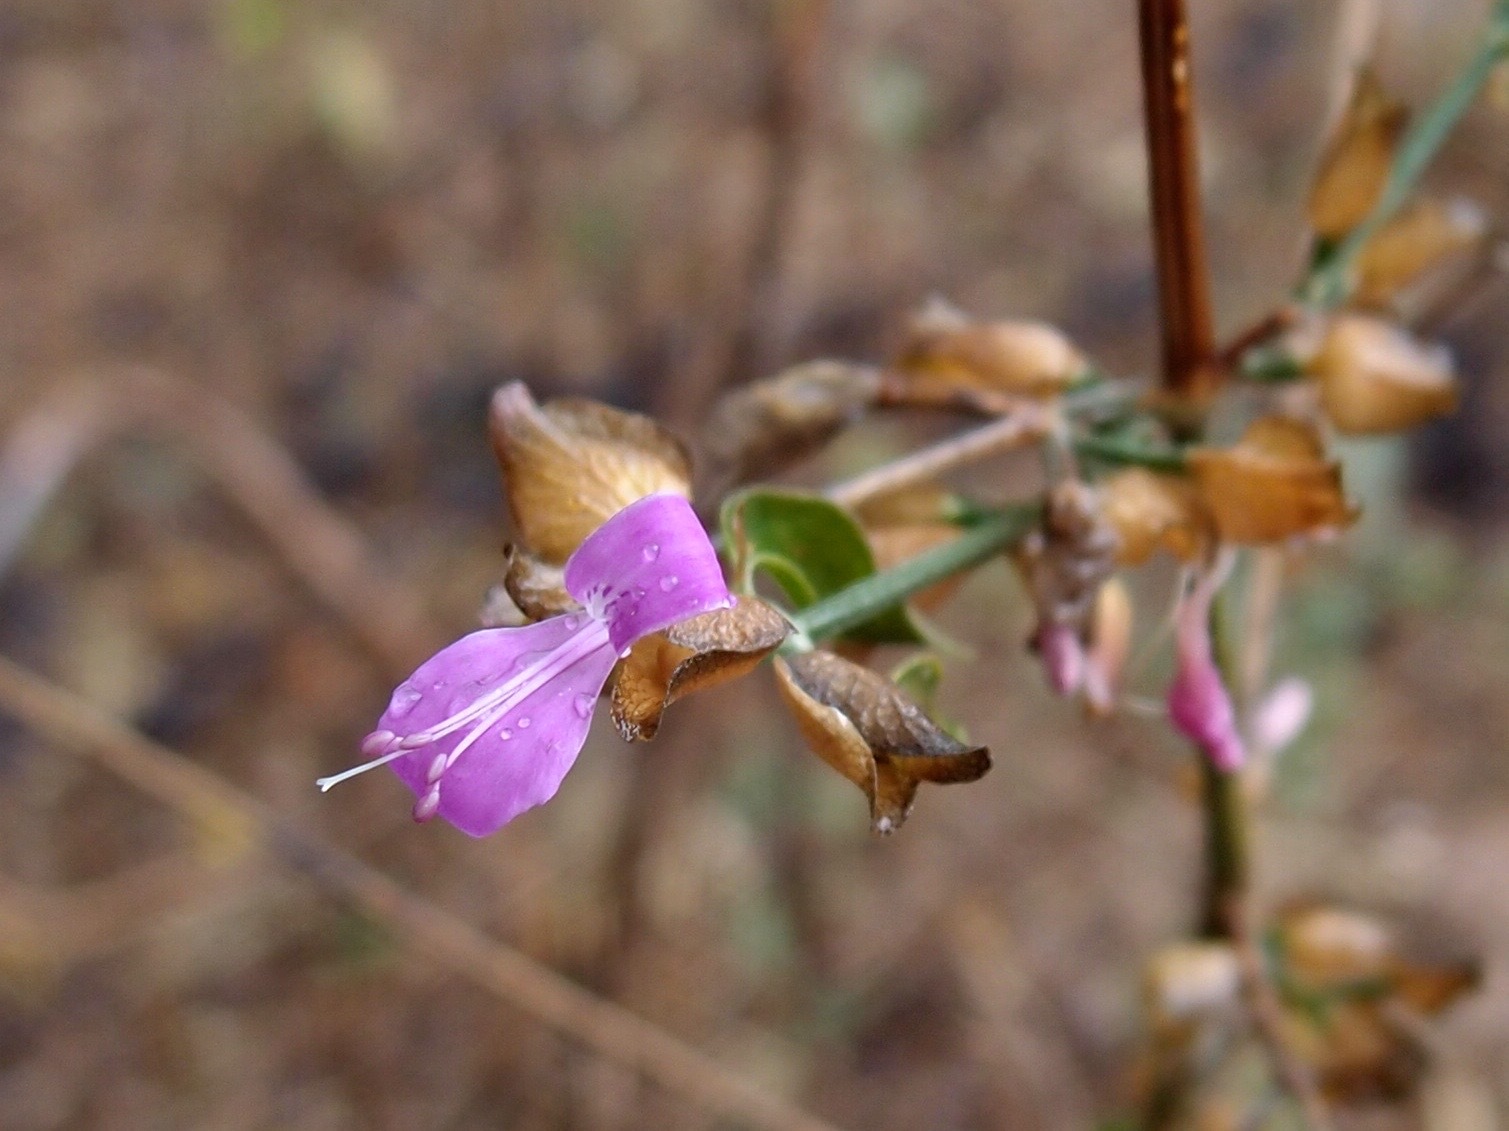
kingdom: Plantae
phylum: Tracheophyta
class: Magnoliopsida
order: Lamiales
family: Acanthaceae
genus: Dicliptera
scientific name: Dicliptera resupinata
